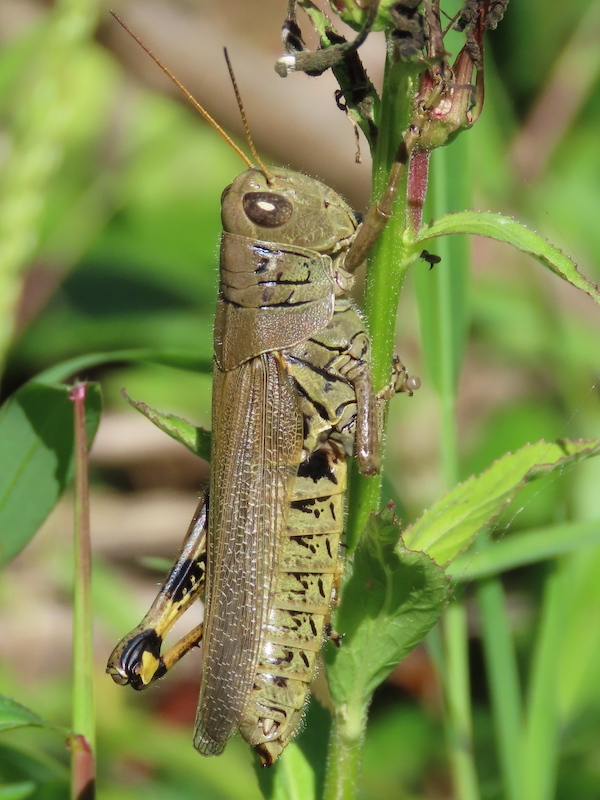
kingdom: Animalia
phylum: Arthropoda
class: Insecta
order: Orthoptera
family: Acrididae
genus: Melanoplus
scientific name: Melanoplus differentialis
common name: Differential grasshopper
